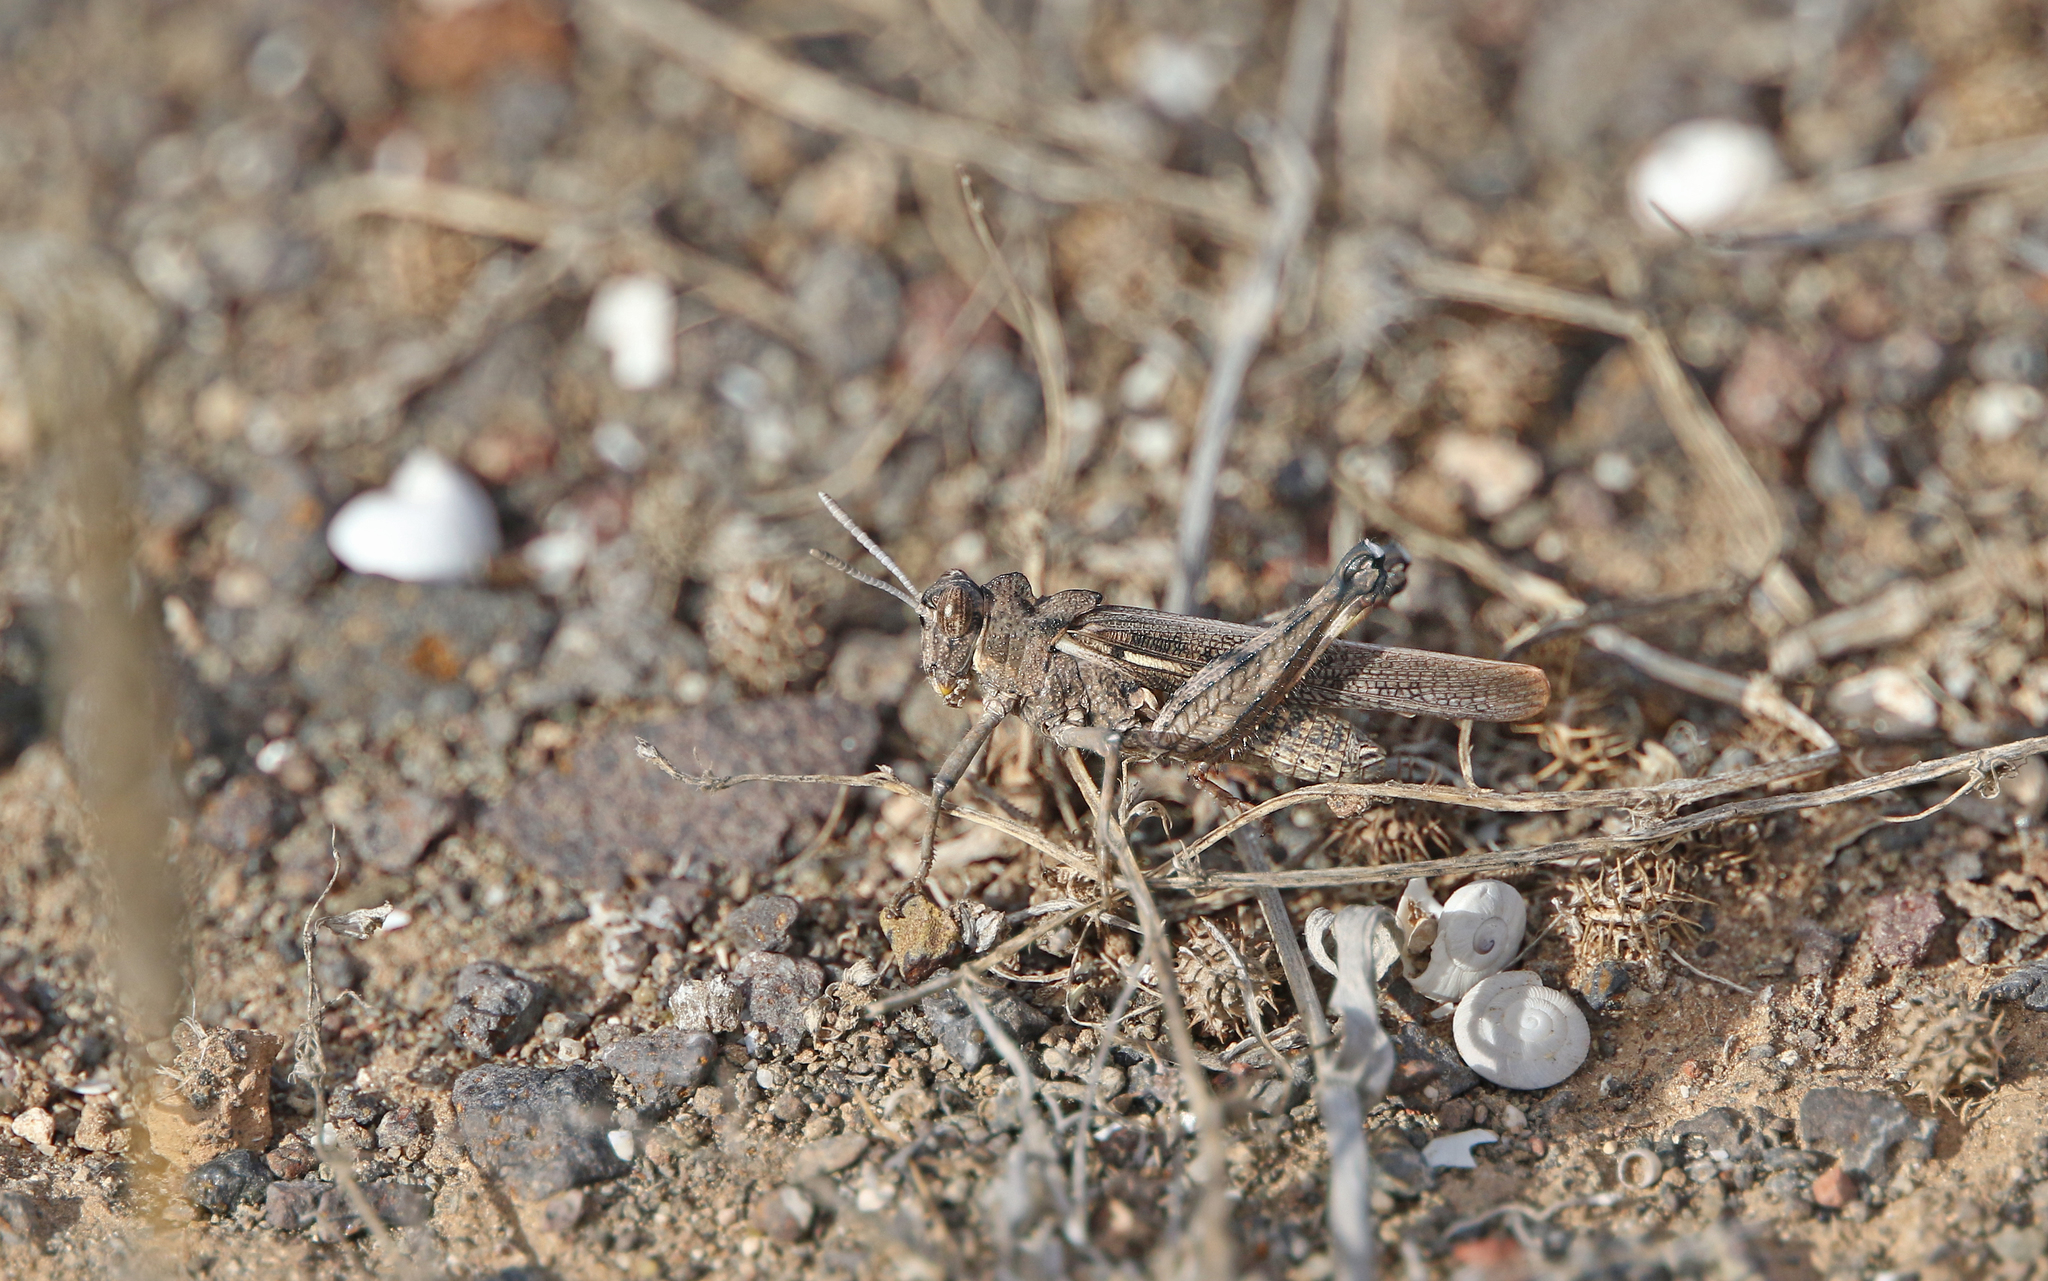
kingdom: Animalia
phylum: Arthropoda
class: Insecta
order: Orthoptera
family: Dericorythidae
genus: Dericorys
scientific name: Dericorys lobata
